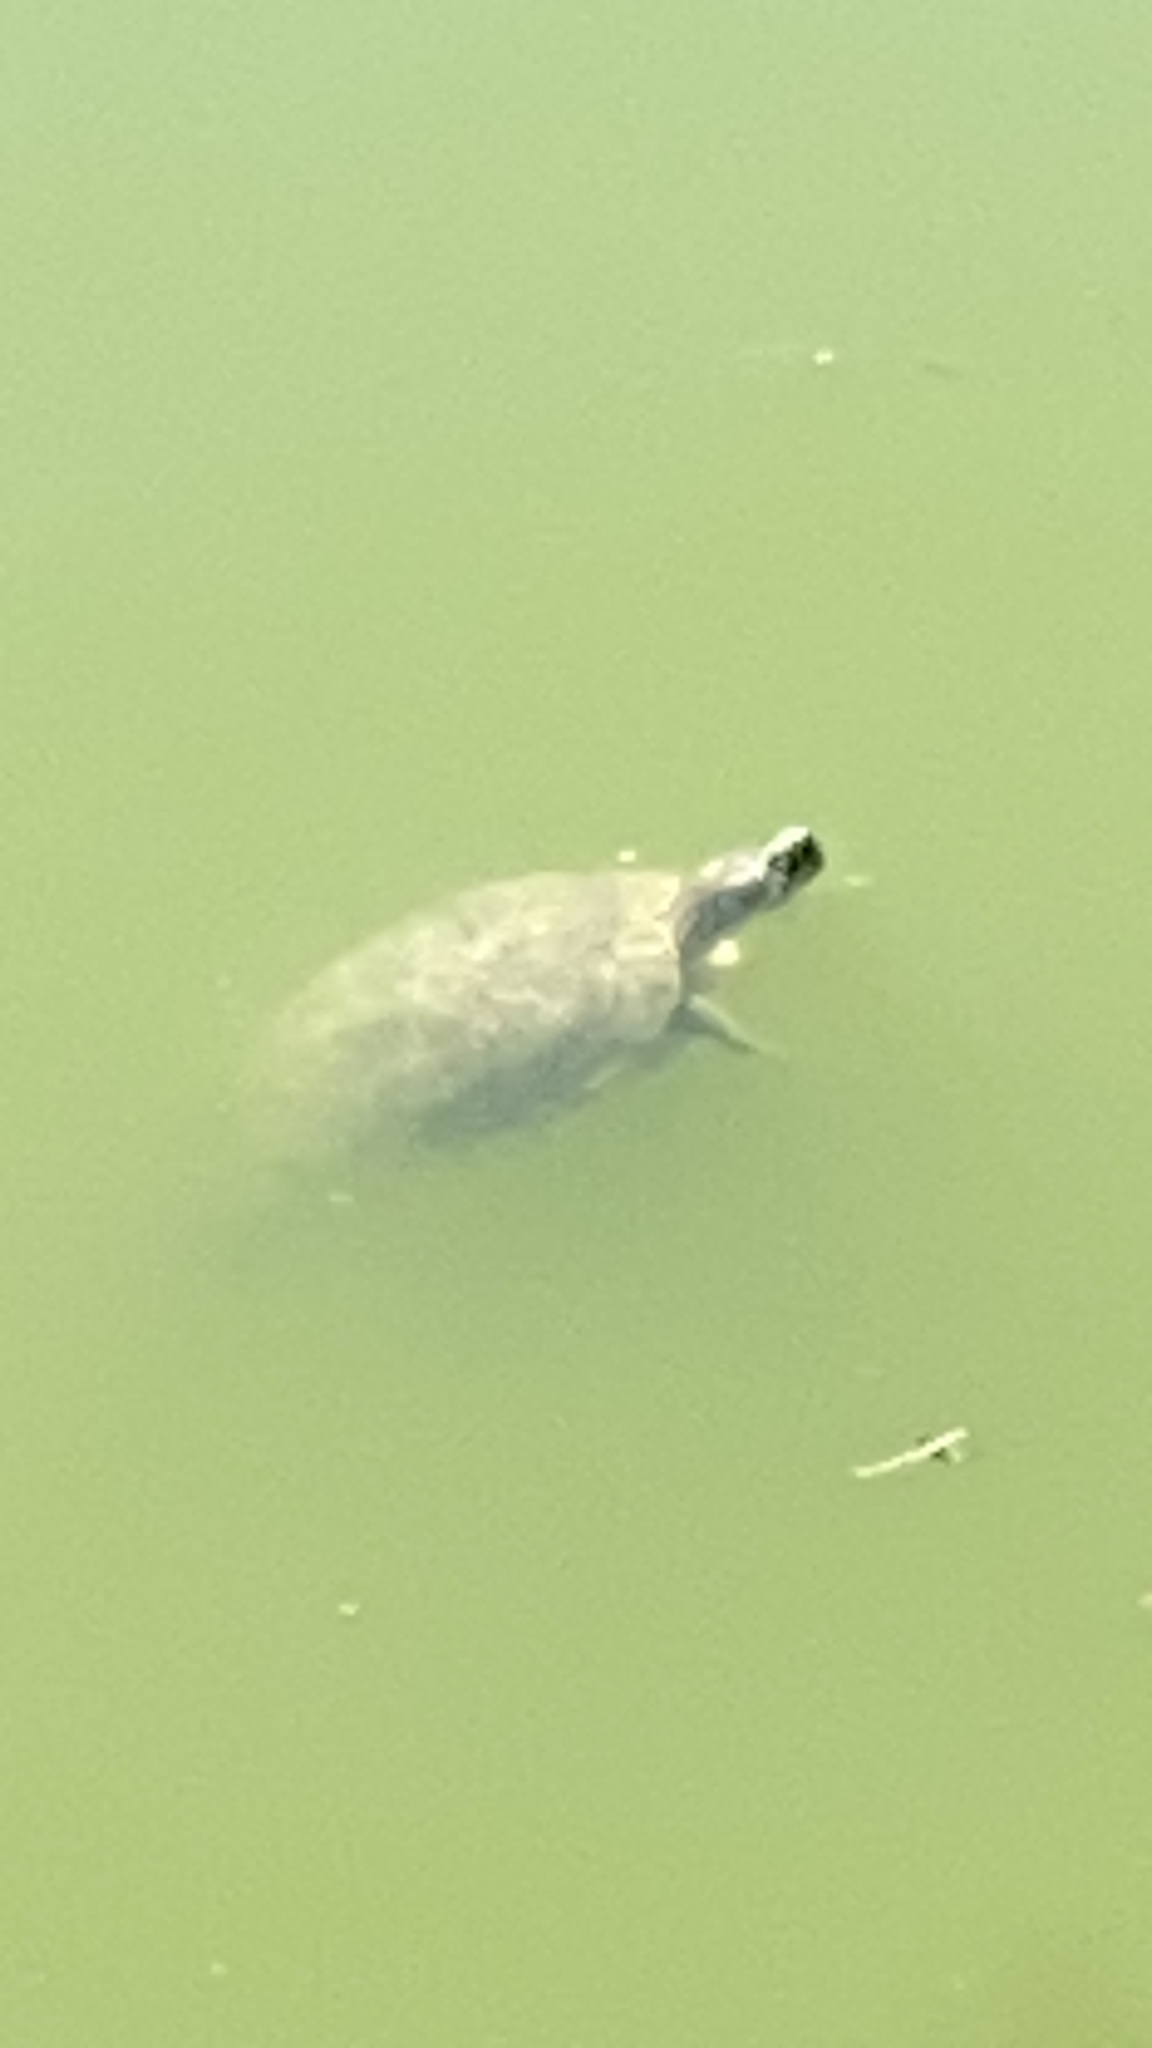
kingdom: Animalia
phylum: Chordata
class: Testudines
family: Emydidae
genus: Trachemys
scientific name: Trachemys scripta
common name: Slider
